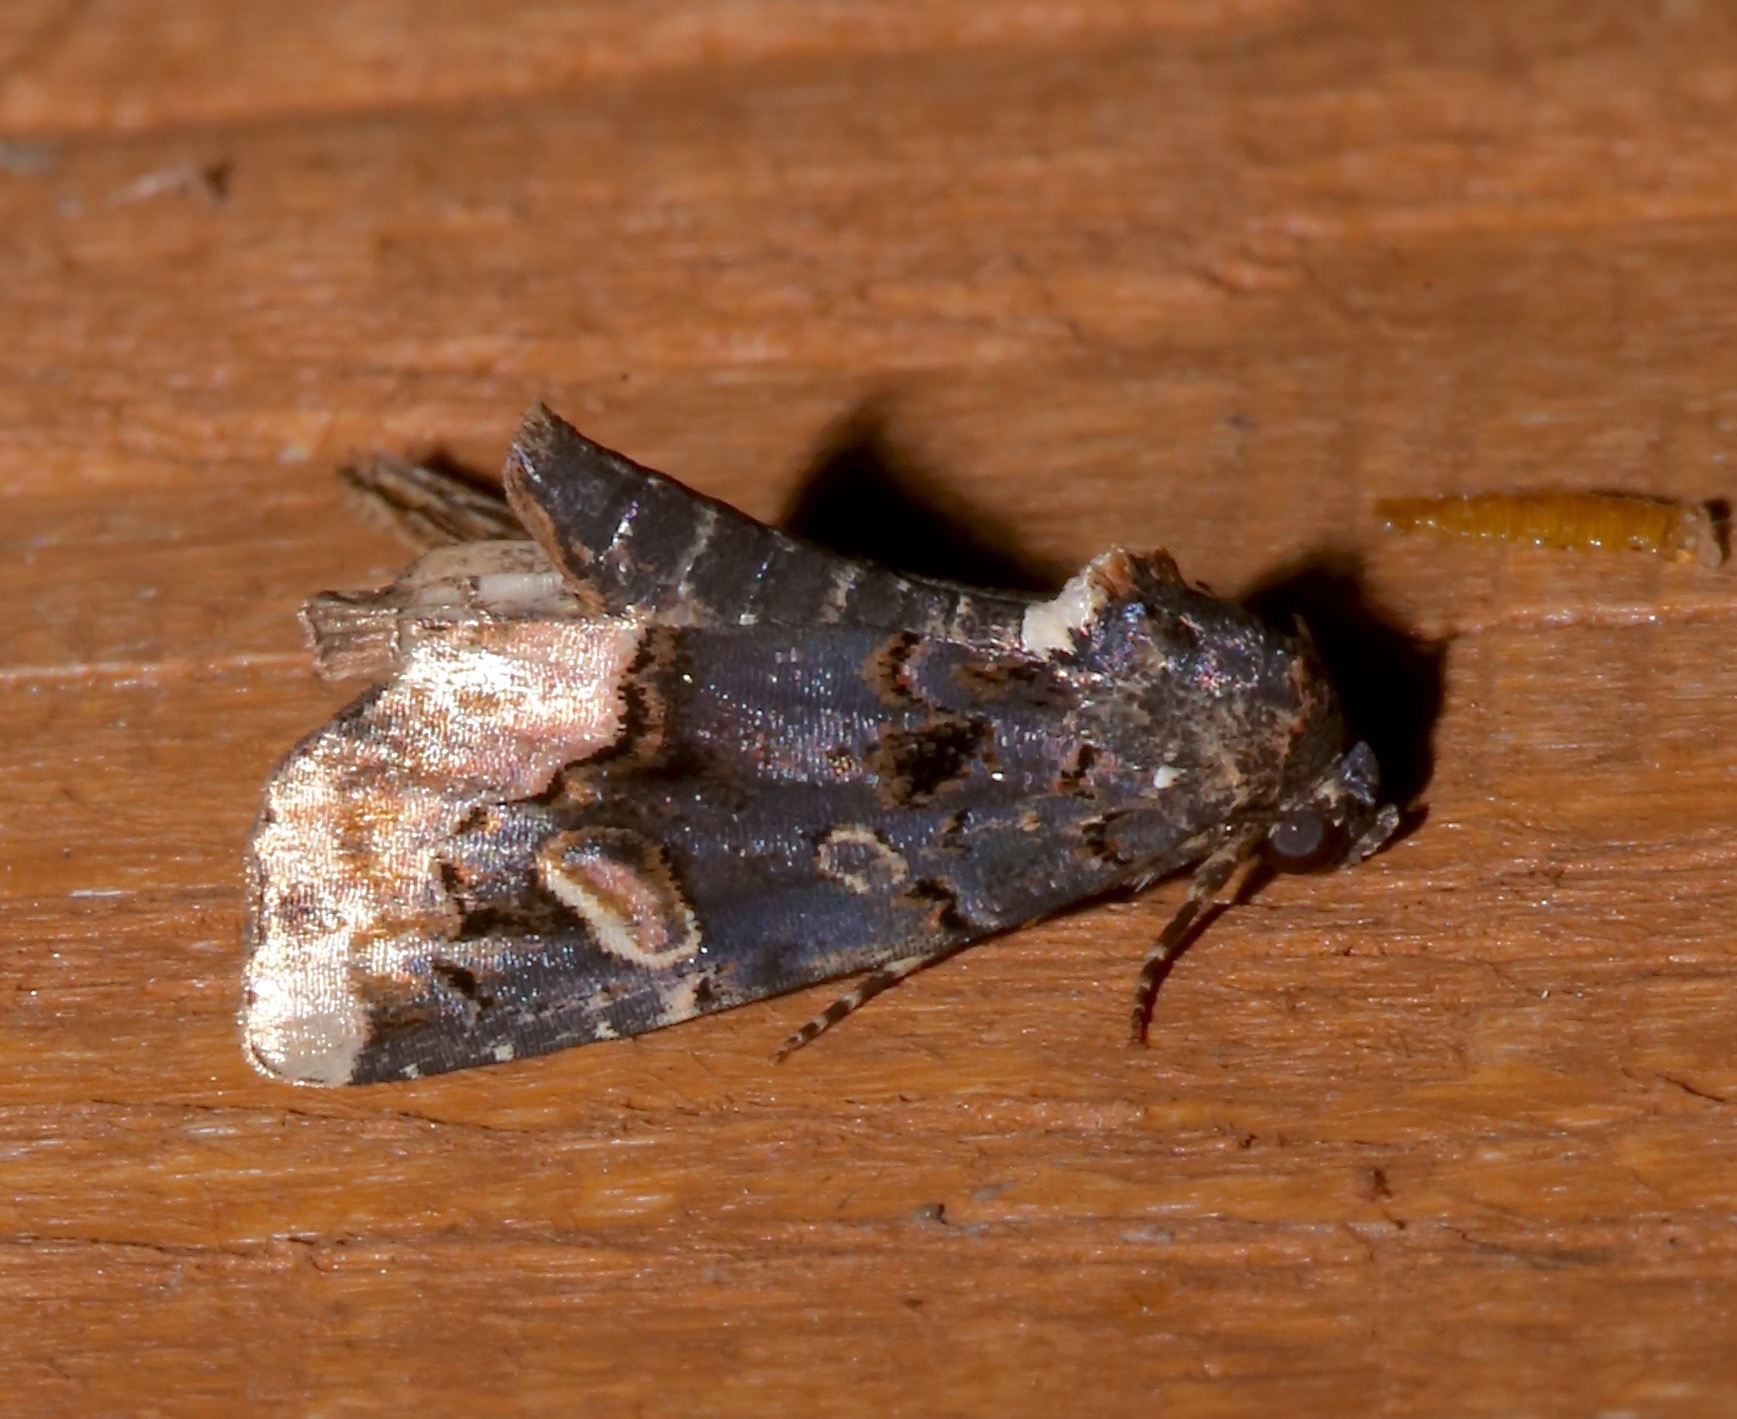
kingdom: Animalia
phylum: Arthropoda
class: Insecta
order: Lepidoptera
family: Noctuidae
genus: Homophoberia
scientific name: Homophoberia apicosa
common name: Black wedge-spot
